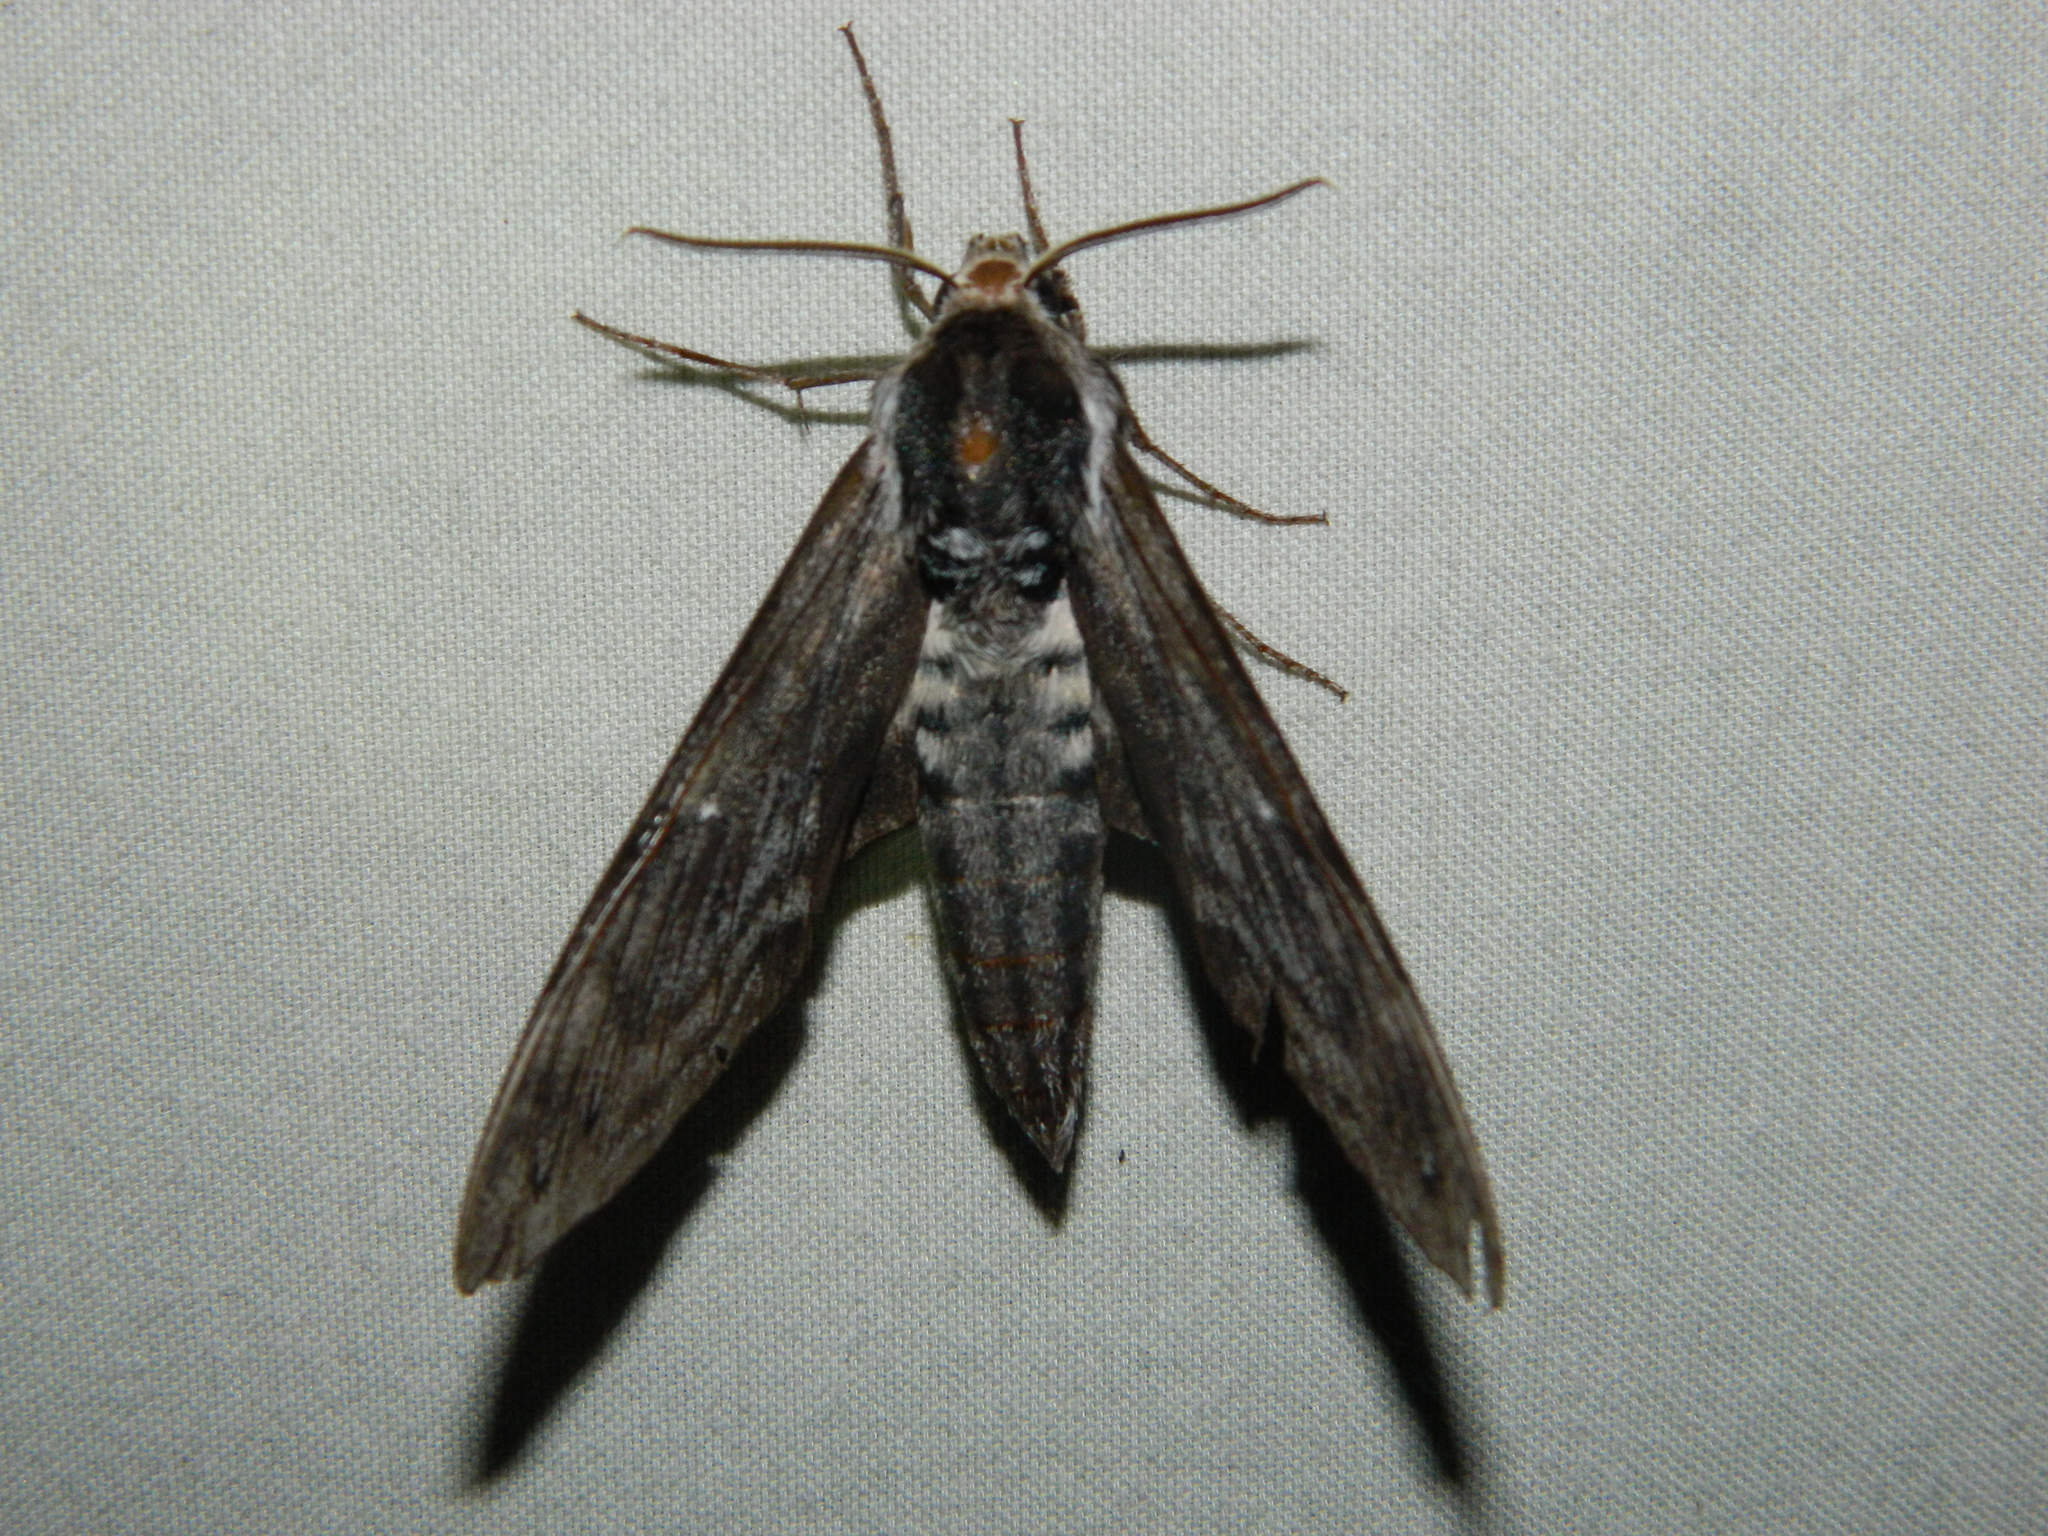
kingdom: Animalia
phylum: Arthropoda
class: Insecta
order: Lepidoptera
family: Sphingidae
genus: Sphinx
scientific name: Sphinx poecila
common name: Northern apple sphinx
